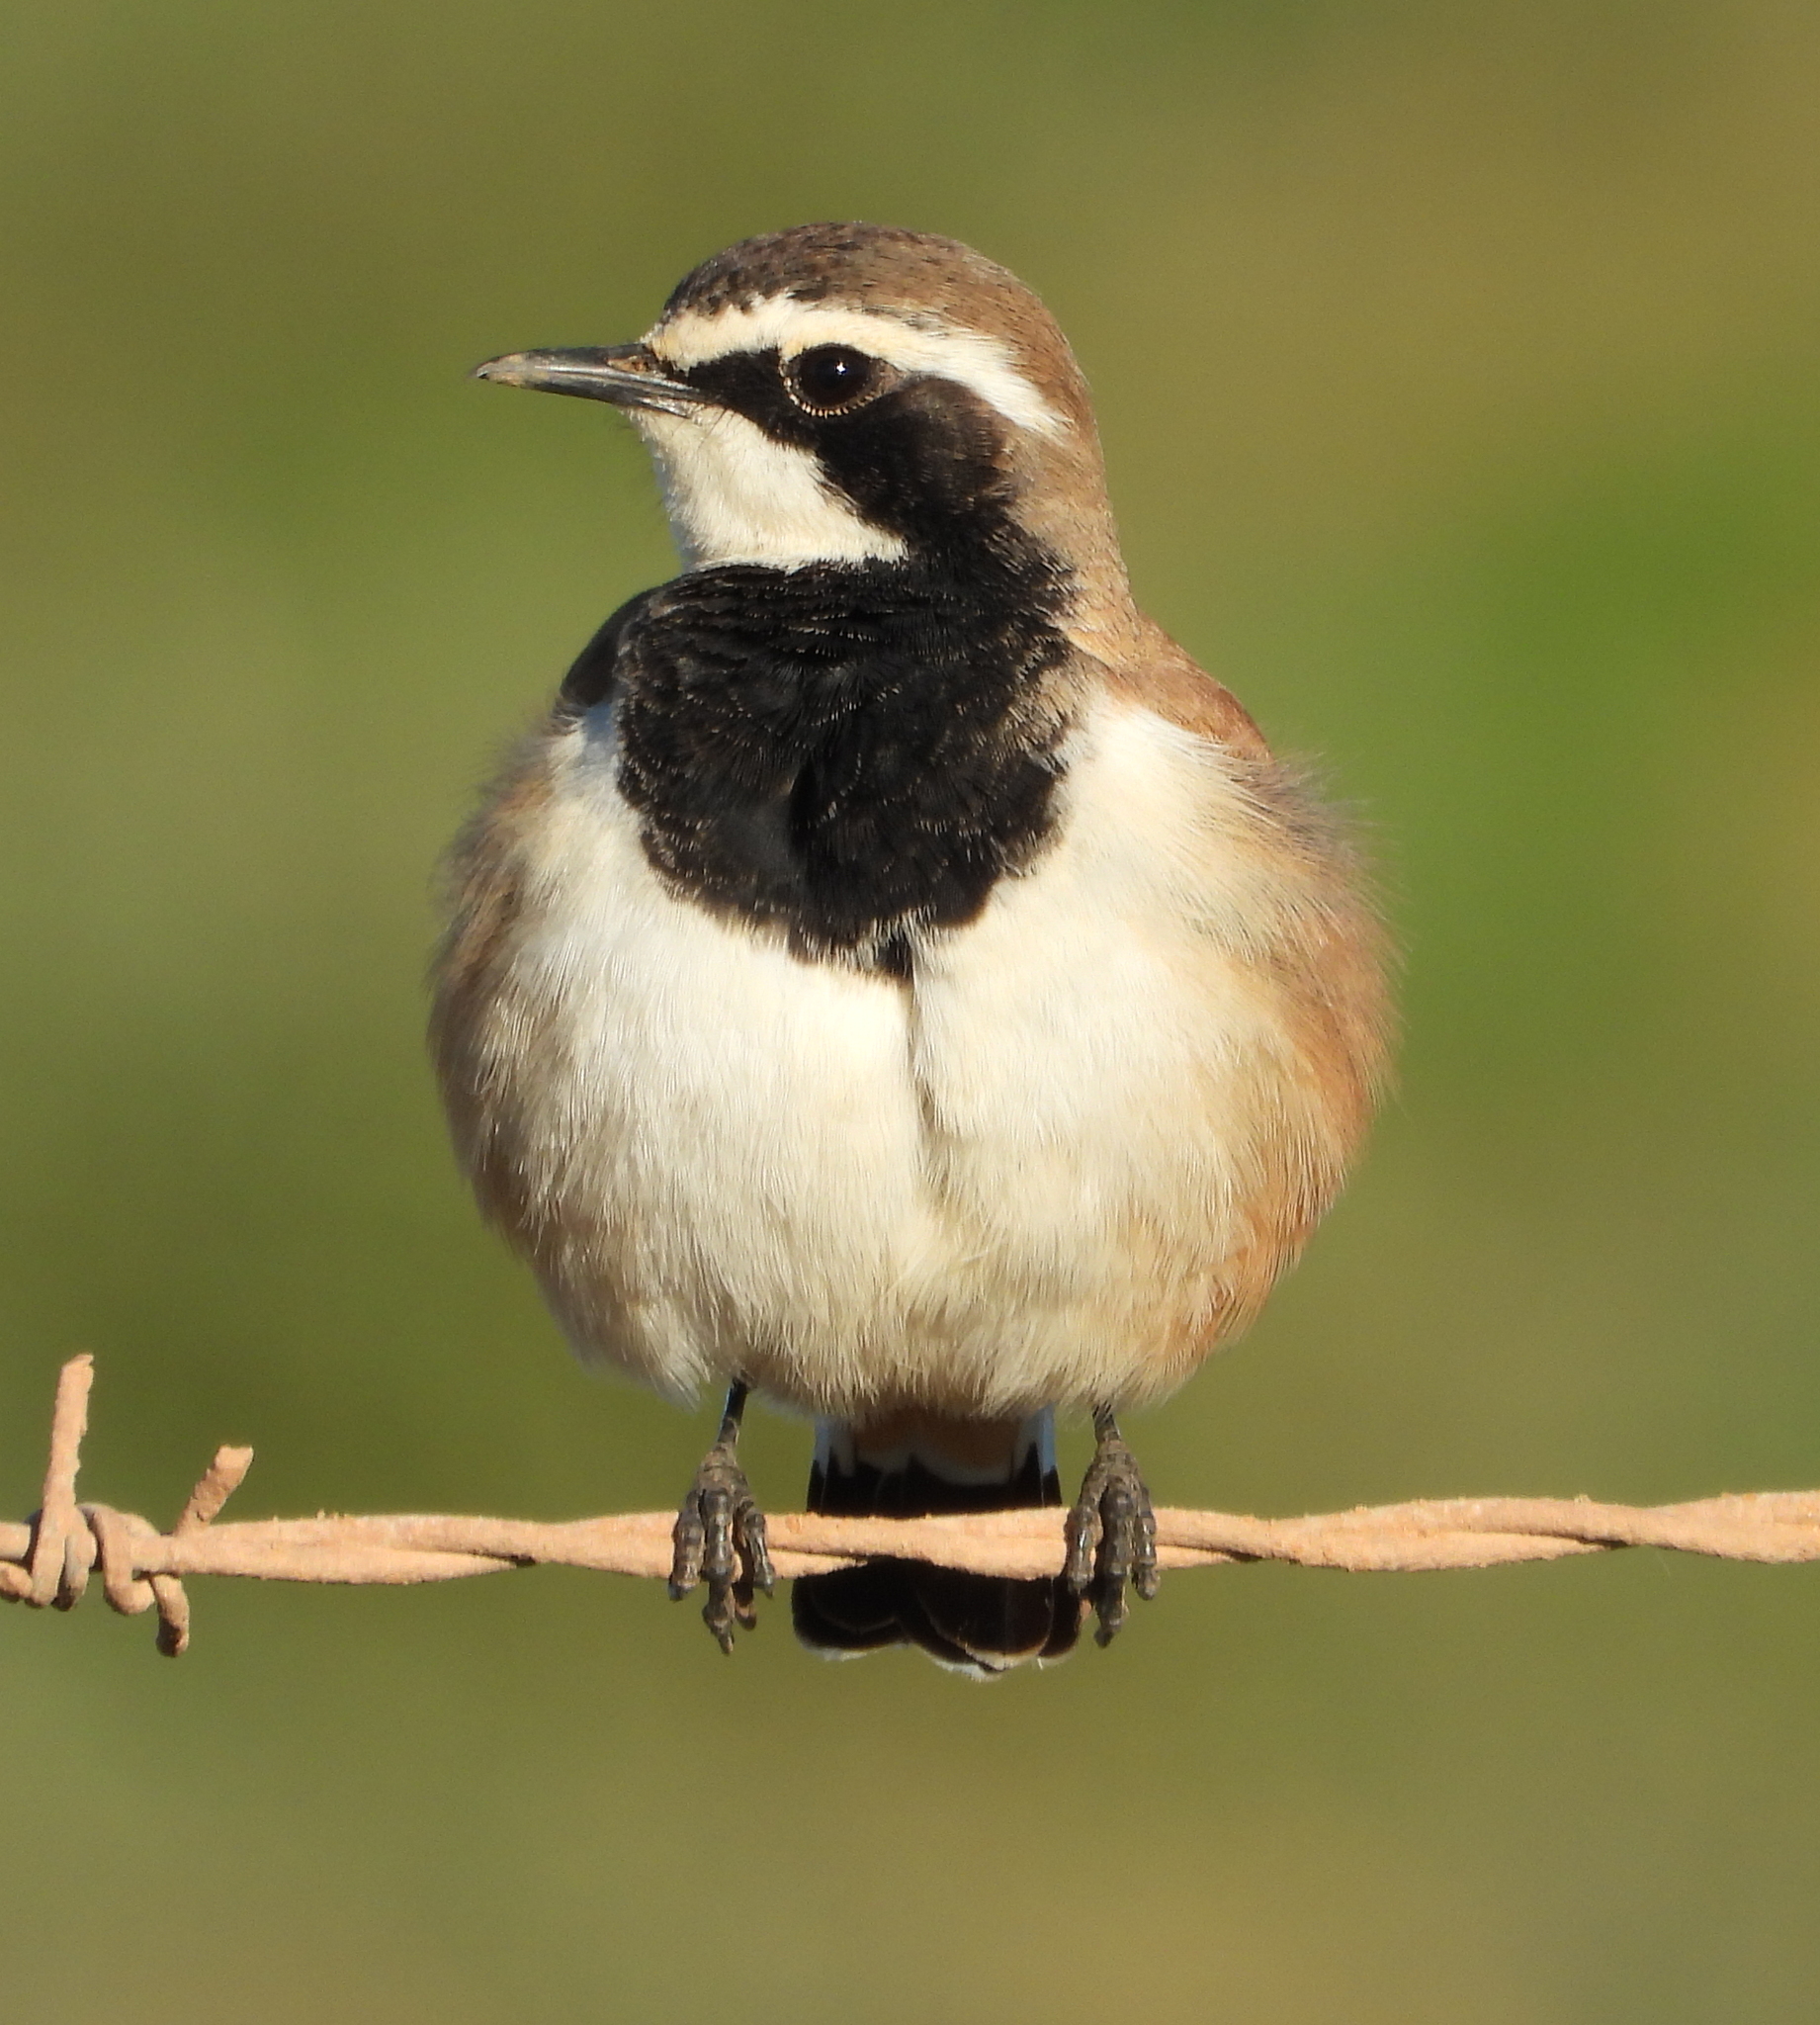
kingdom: Animalia
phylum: Chordata
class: Aves
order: Passeriformes
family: Muscicapidae
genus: Oenanthe
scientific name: Oenanthe pileata
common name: Capped wheatear
